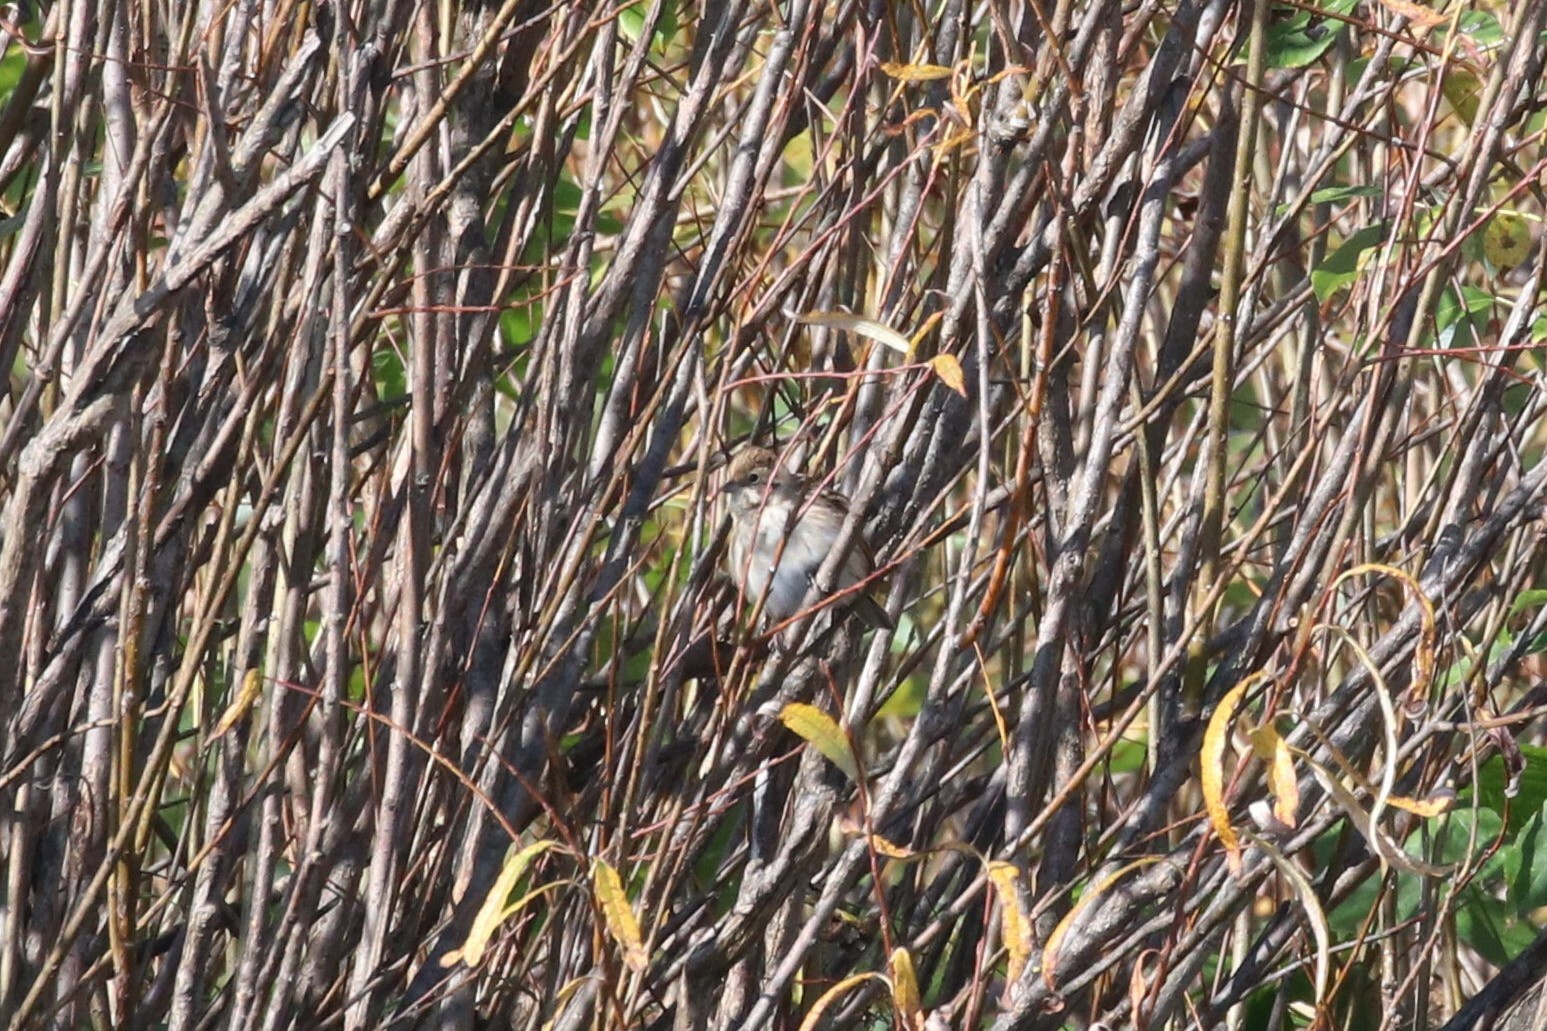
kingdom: Animalia
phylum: Chordata
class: Aves
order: Passeriformes
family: Emberizidae
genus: Emberiza
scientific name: Emberiza schoeniclus
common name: Reed bunting
